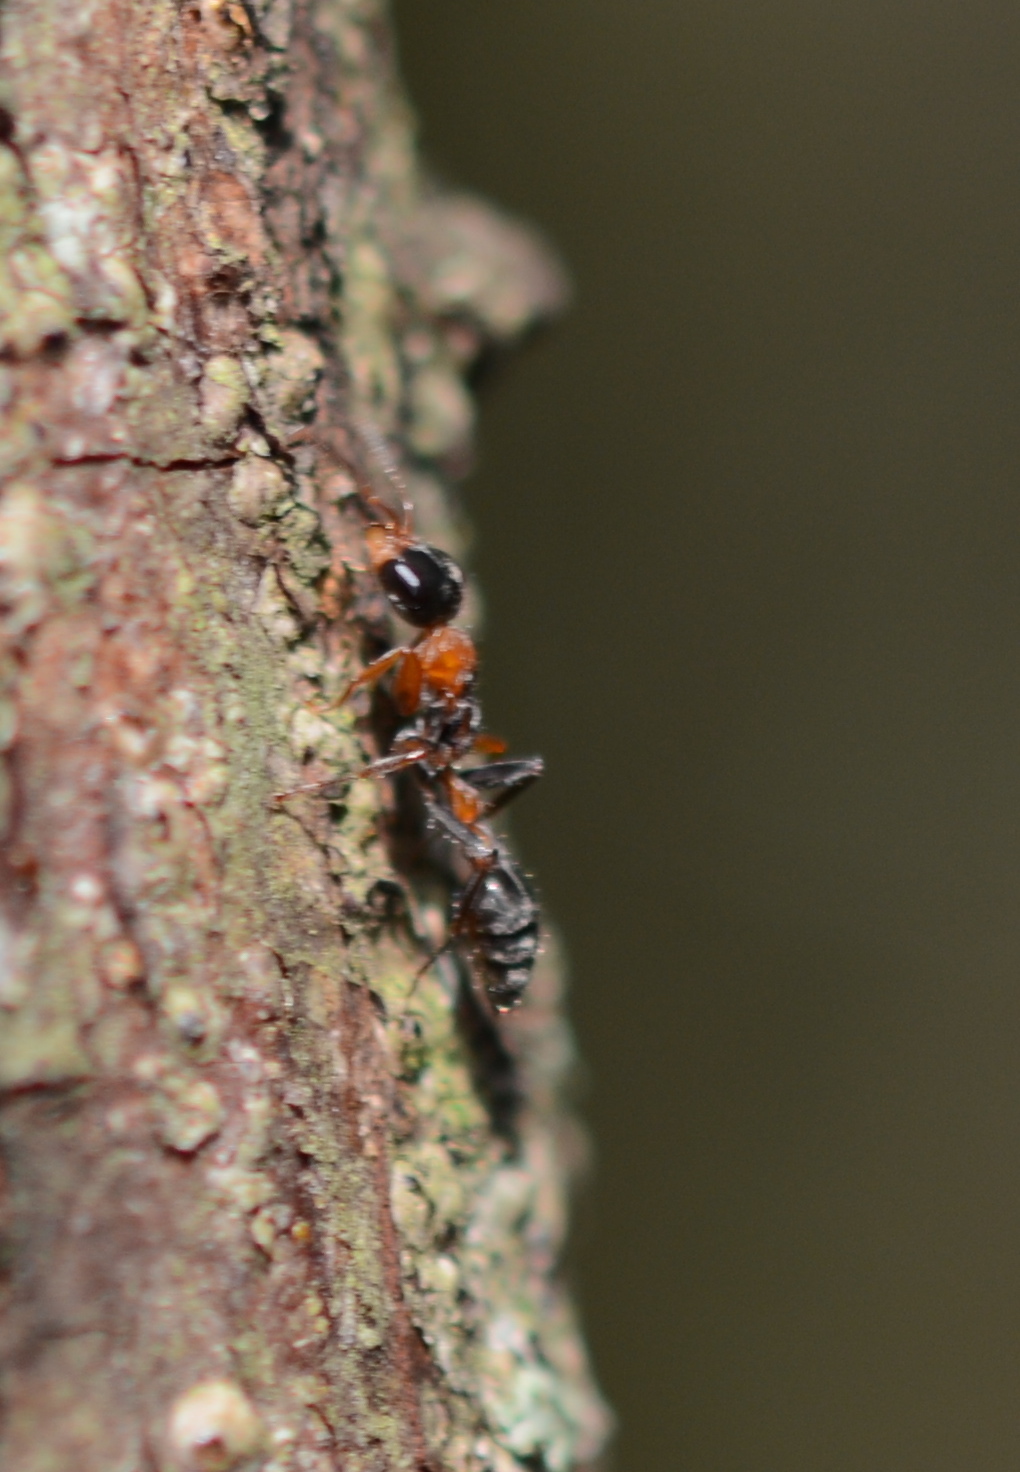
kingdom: Animalia
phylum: Arthropoda
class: Insecta
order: Hymenoptera
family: Formicidae
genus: Pseudomyrmex
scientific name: Pseudomyrmex gracilis
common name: Graceful twig ant
